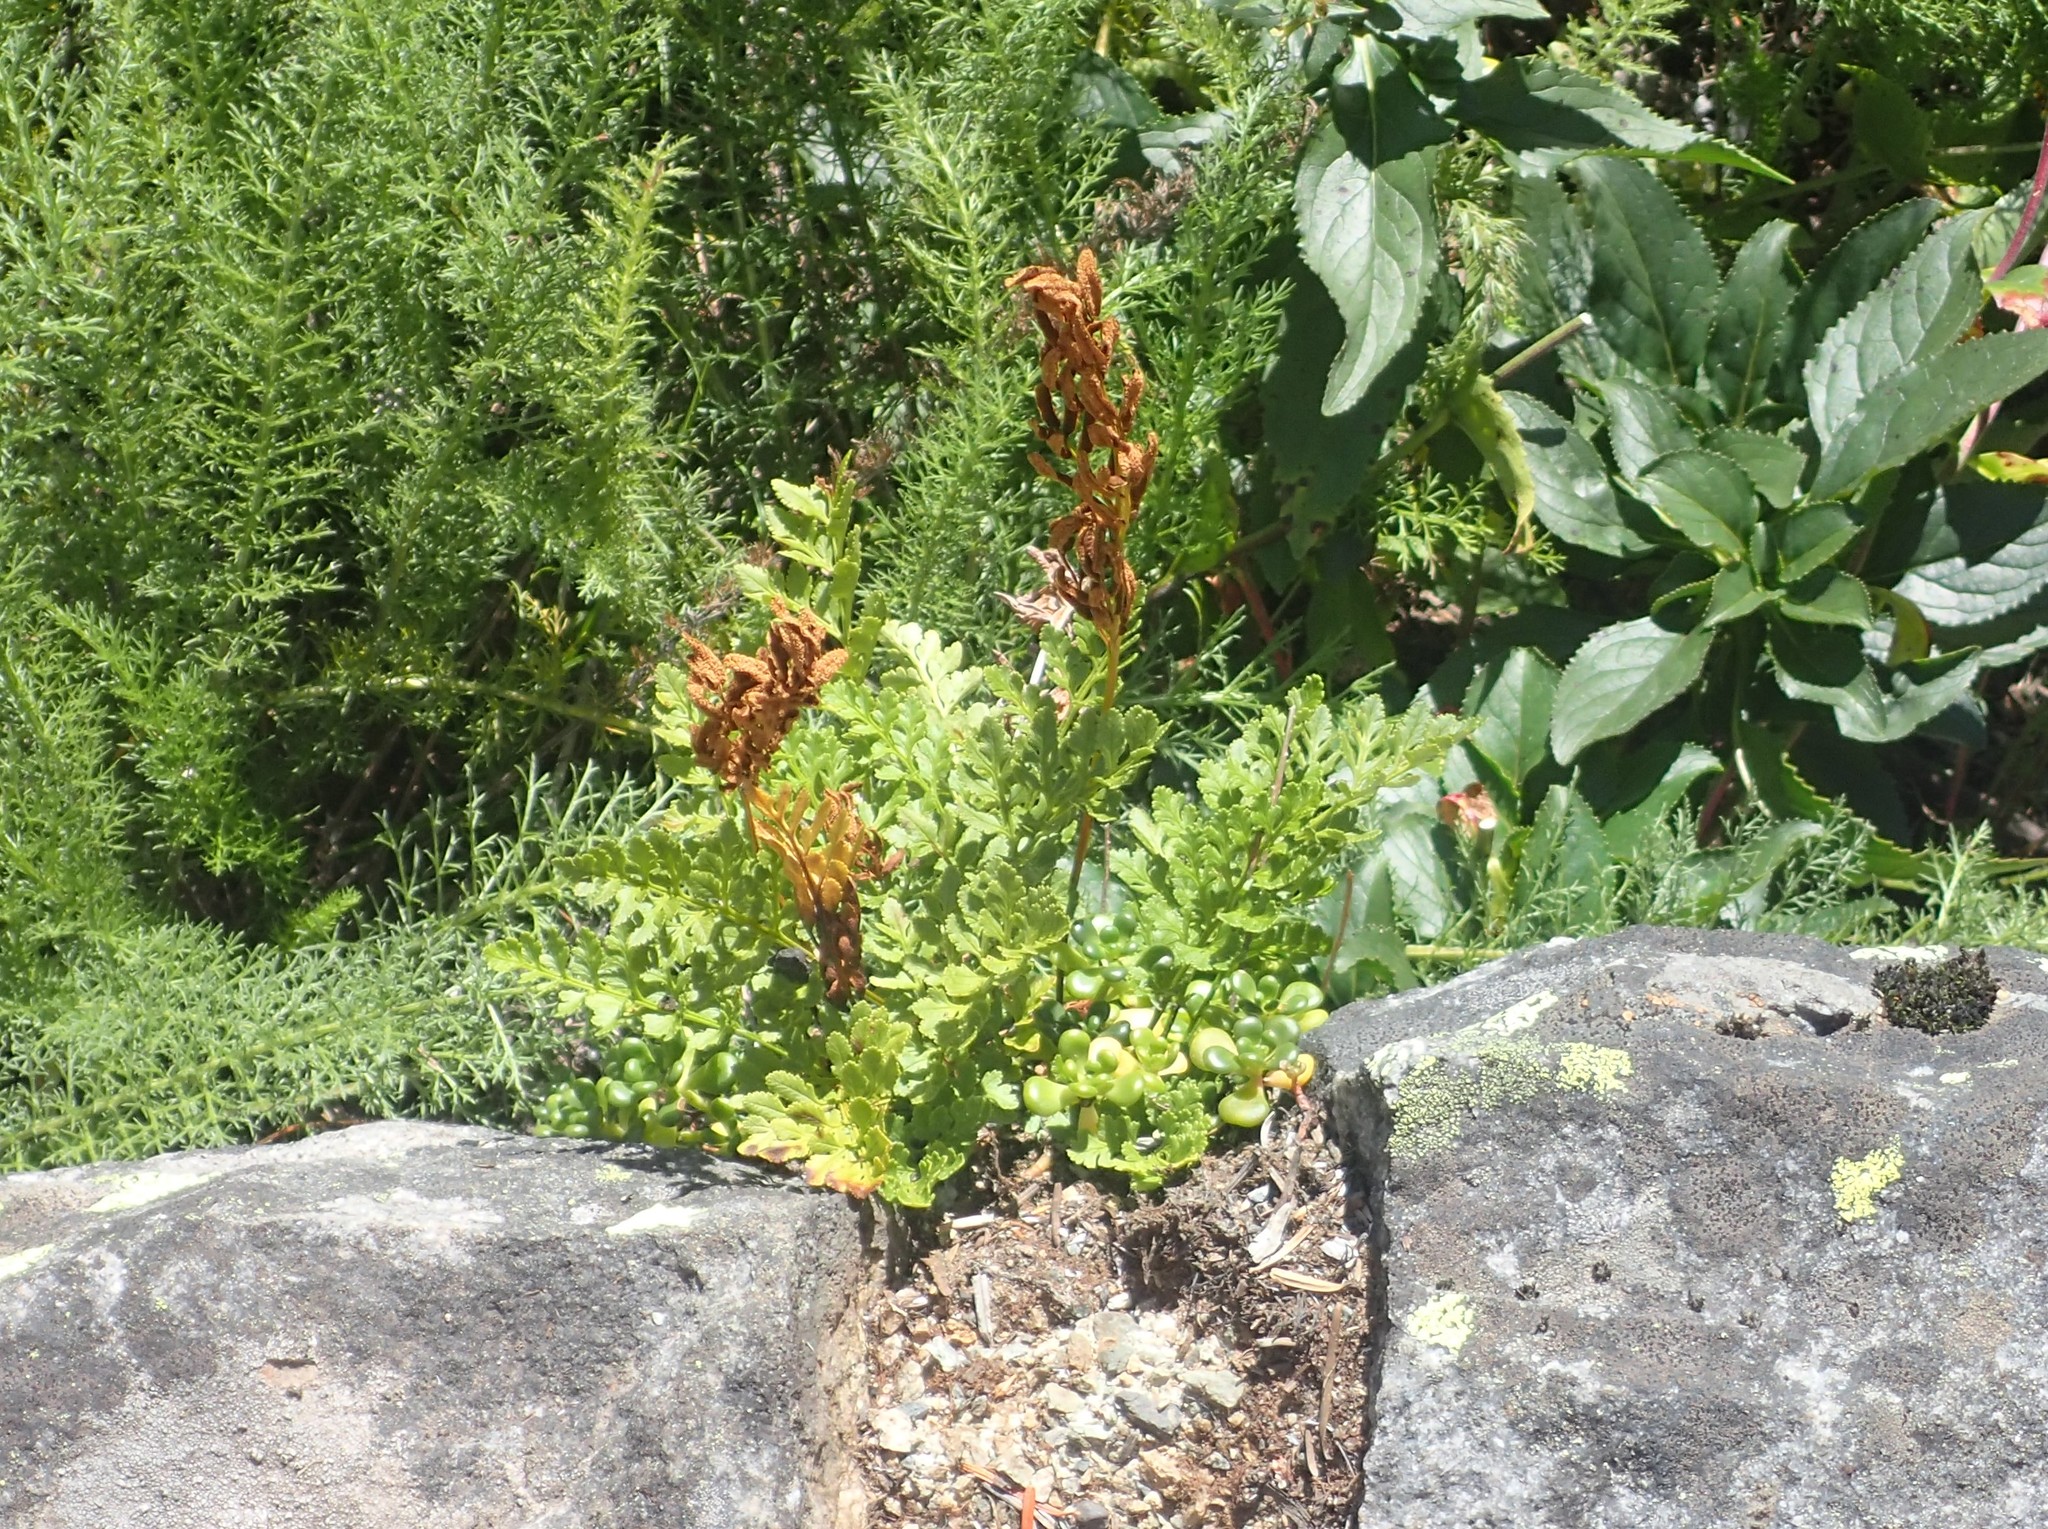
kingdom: Plantae
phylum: Tracheophyta
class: Polypodiopsida
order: Polypodiales
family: Pteridaceae
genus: Cryptogramma
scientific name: Cryptogramma acrostichoides
